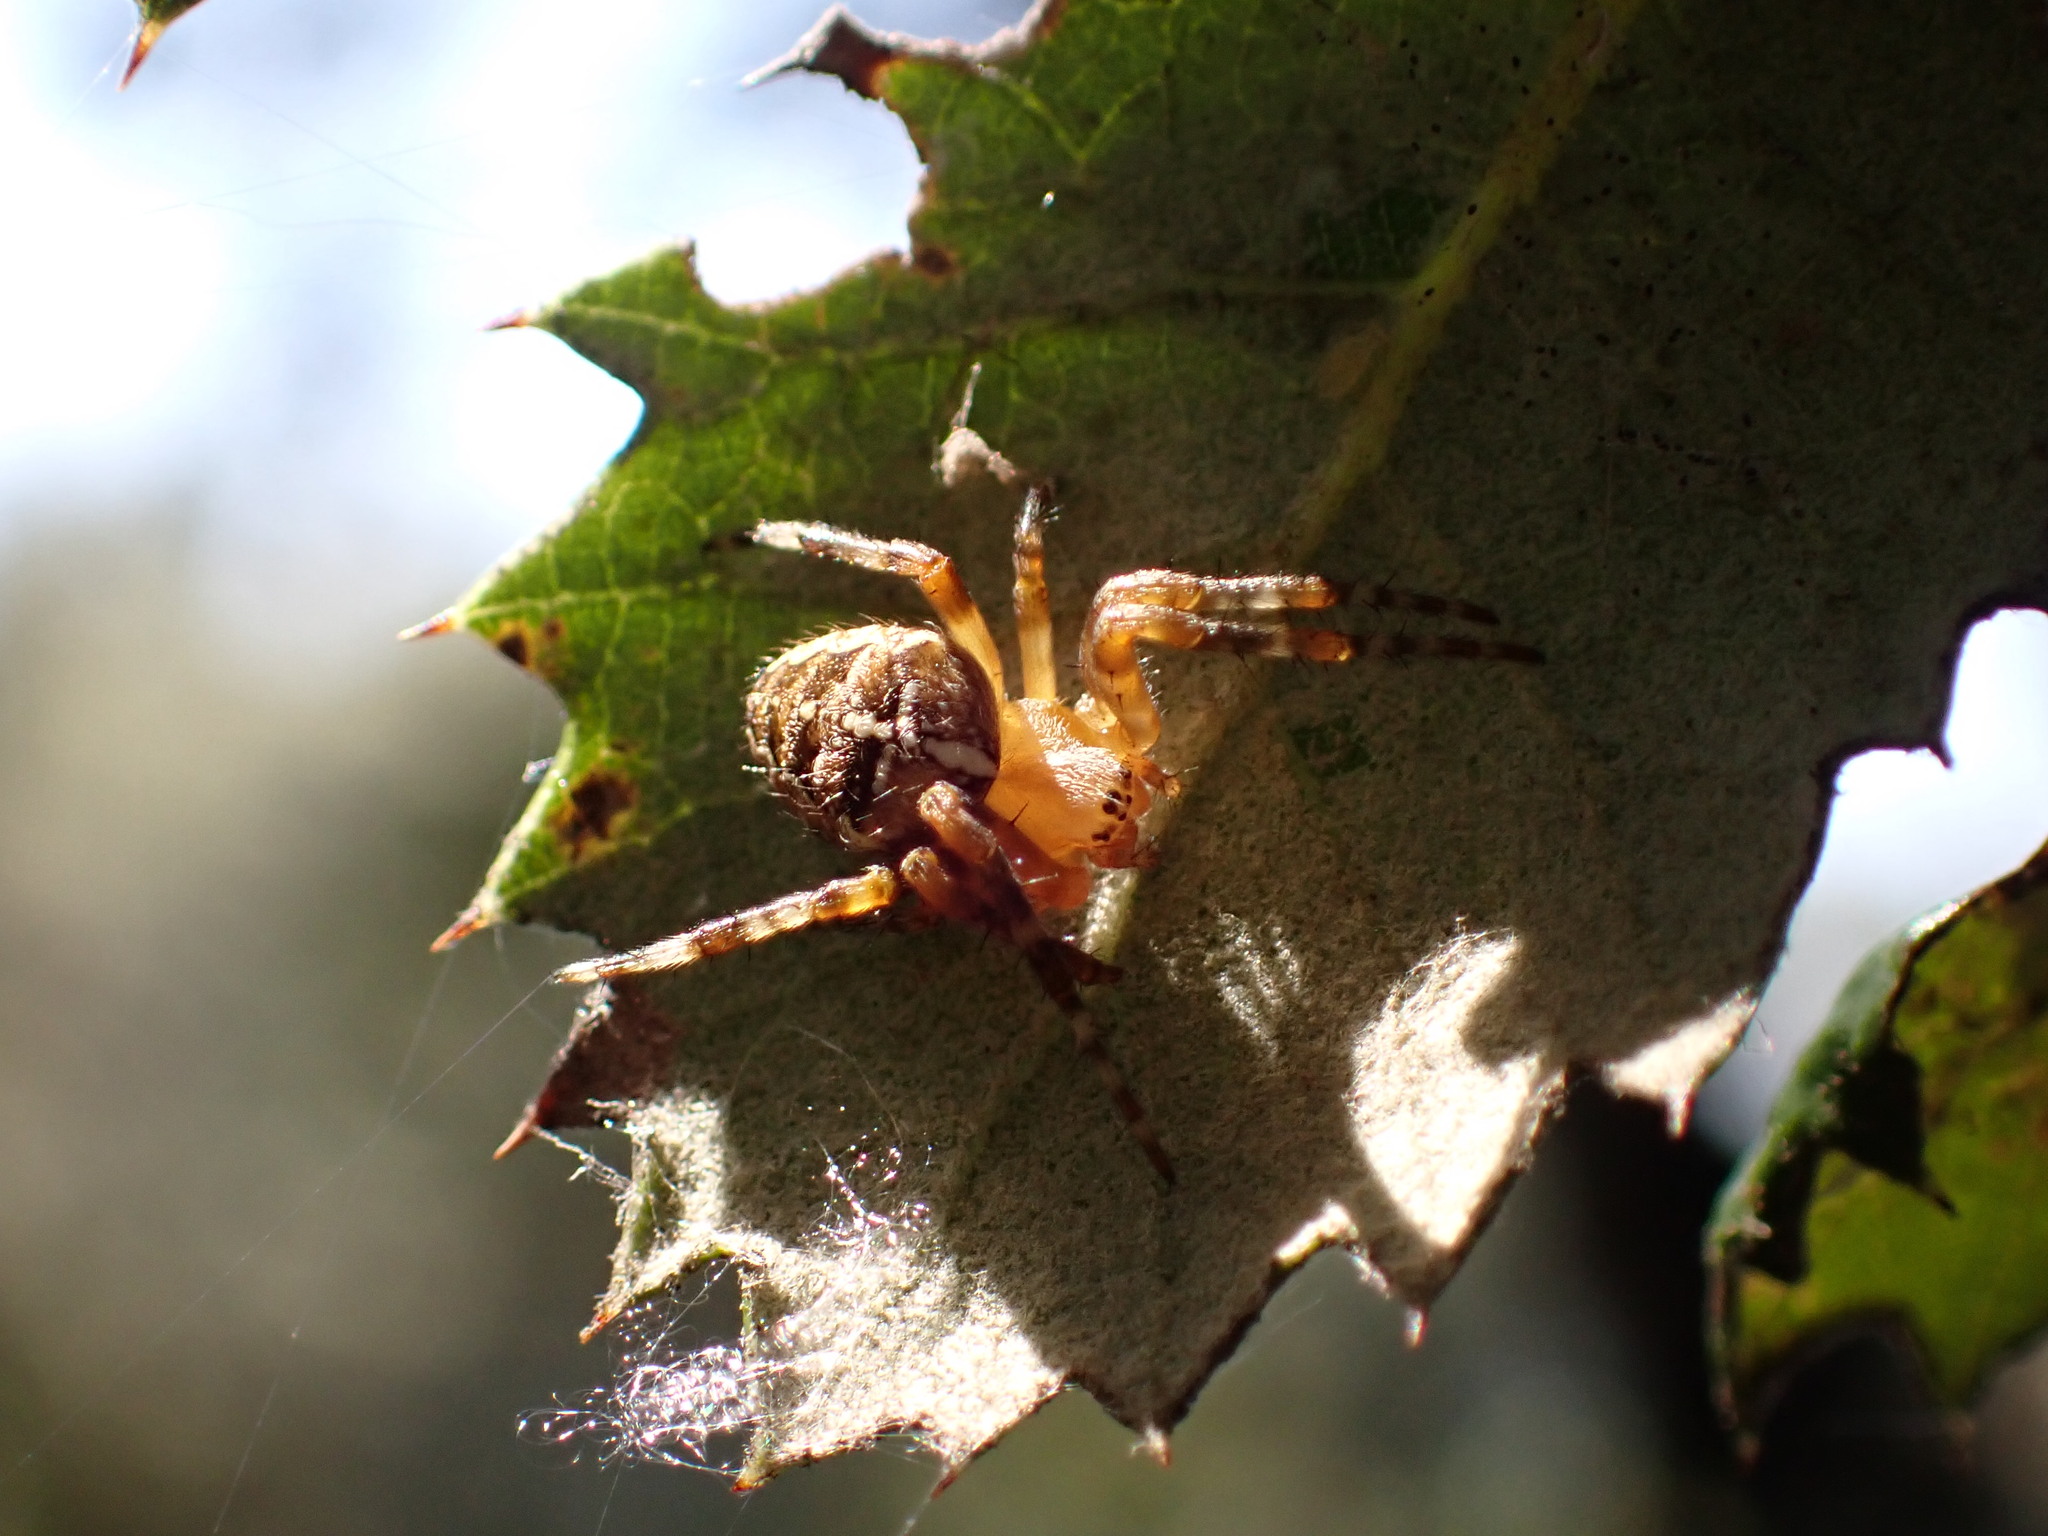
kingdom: Animalia
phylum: Arthropoda
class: Arachnida
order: Araneae
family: Araneidae
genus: Araneus
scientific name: Araneus diadematus
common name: Cross orbweaver
